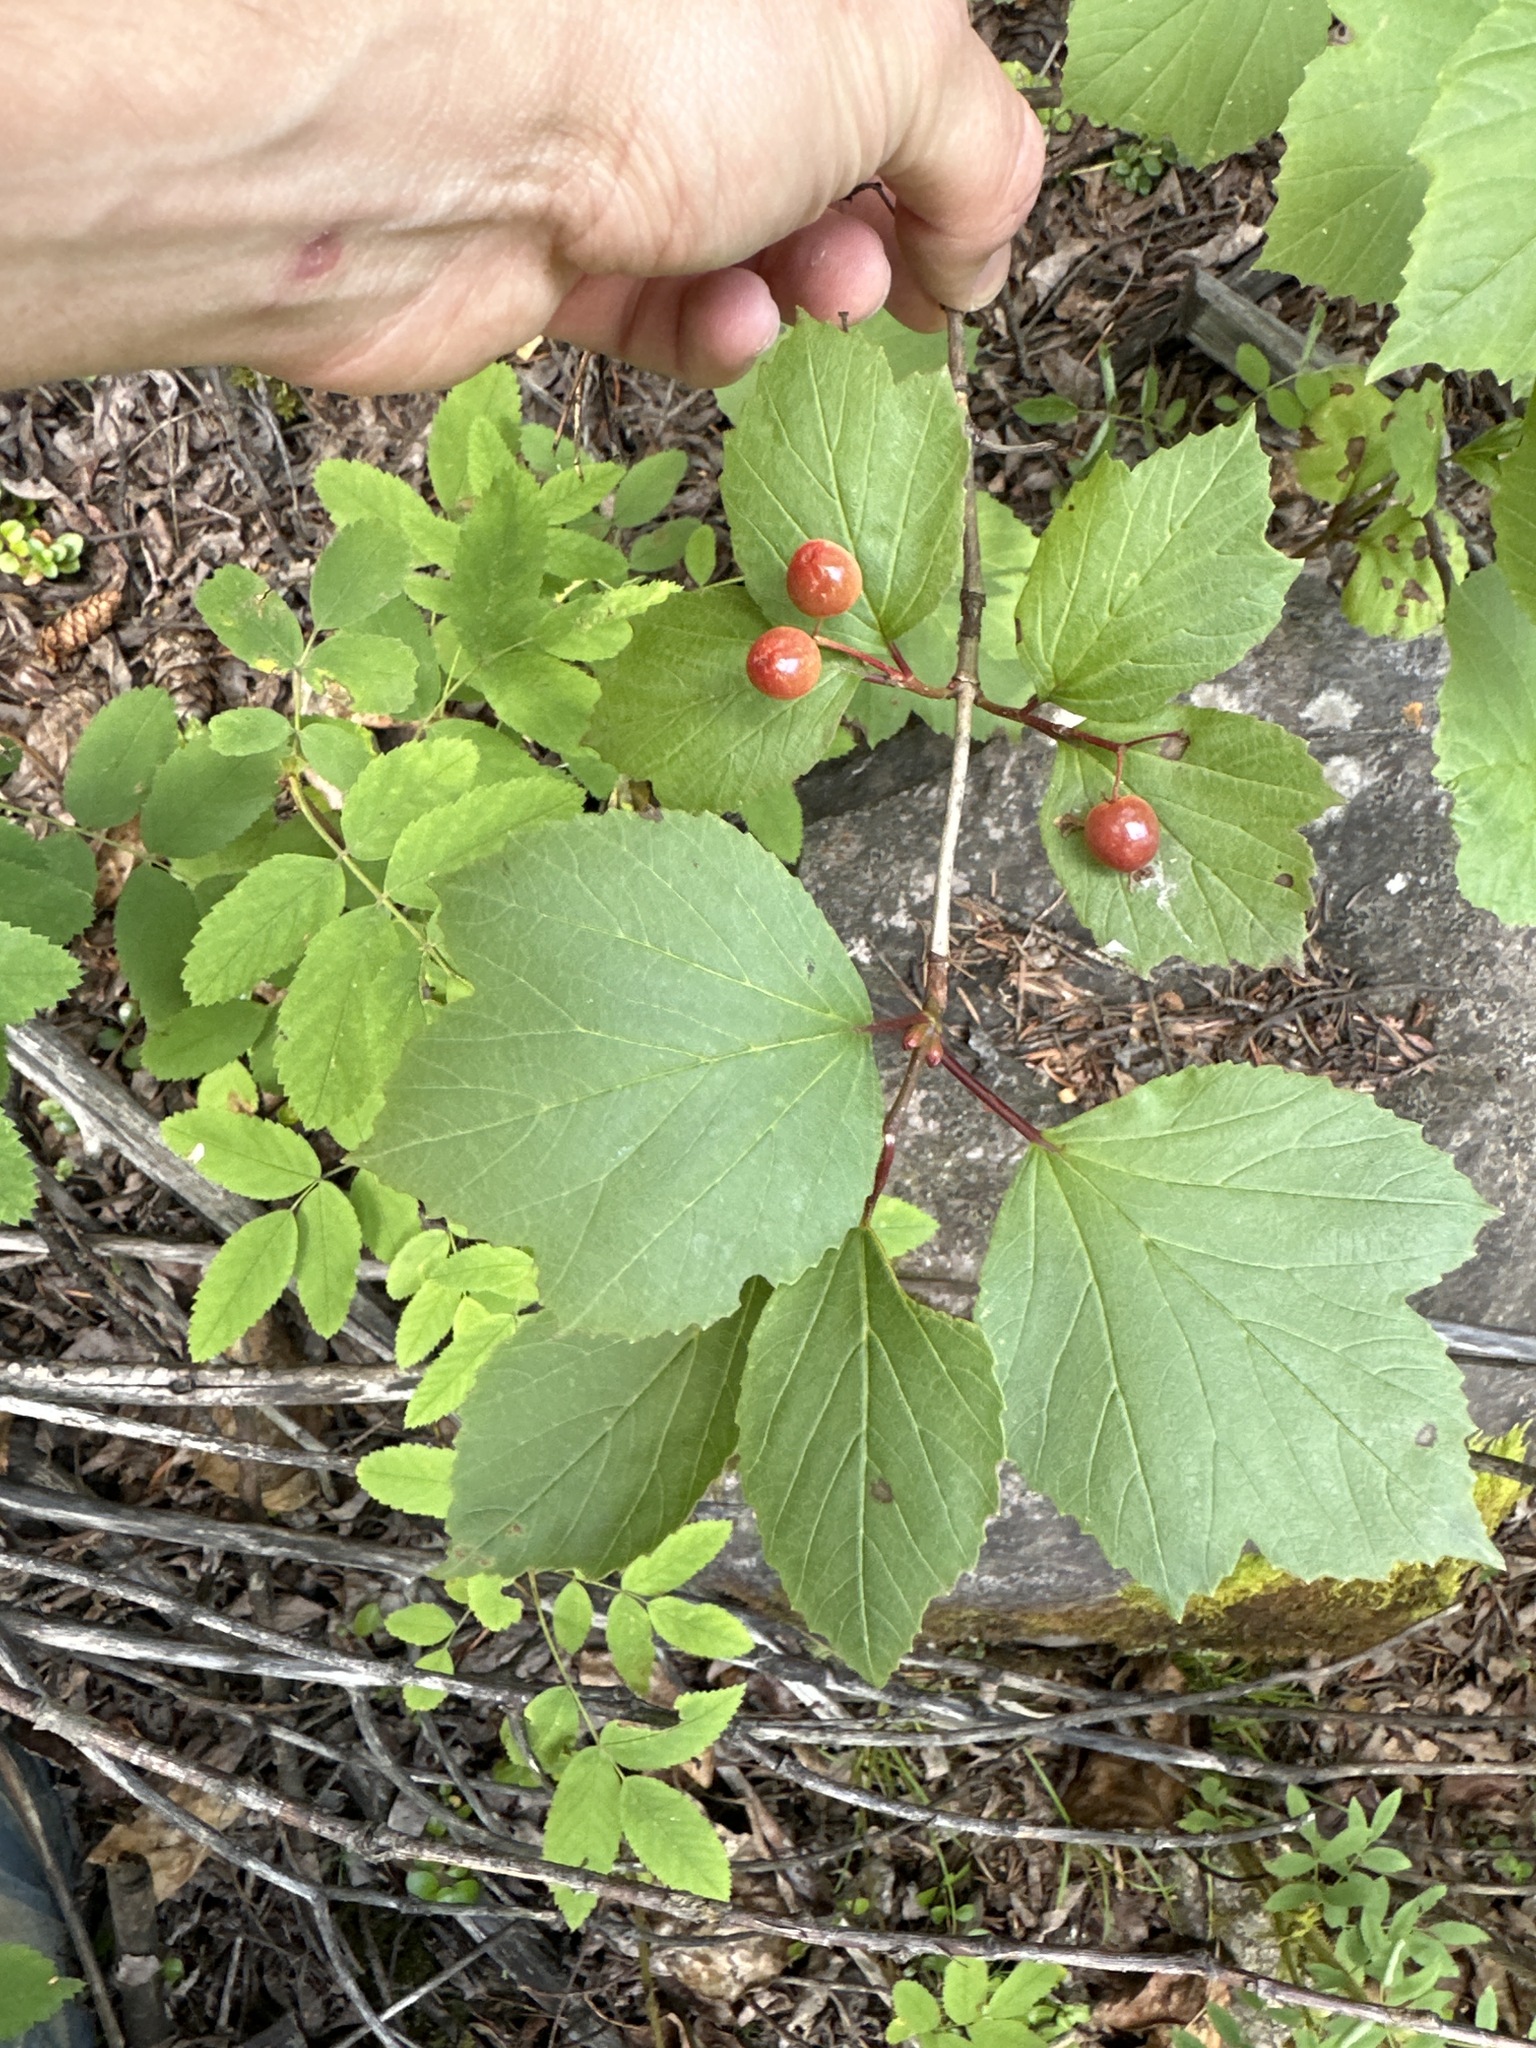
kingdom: Plantae
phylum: Tracheophyta
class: Magnoliopsida
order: Dipsacales
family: Viburnaceae
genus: Viburnum
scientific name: Viburnum edule
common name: Mooseberry
